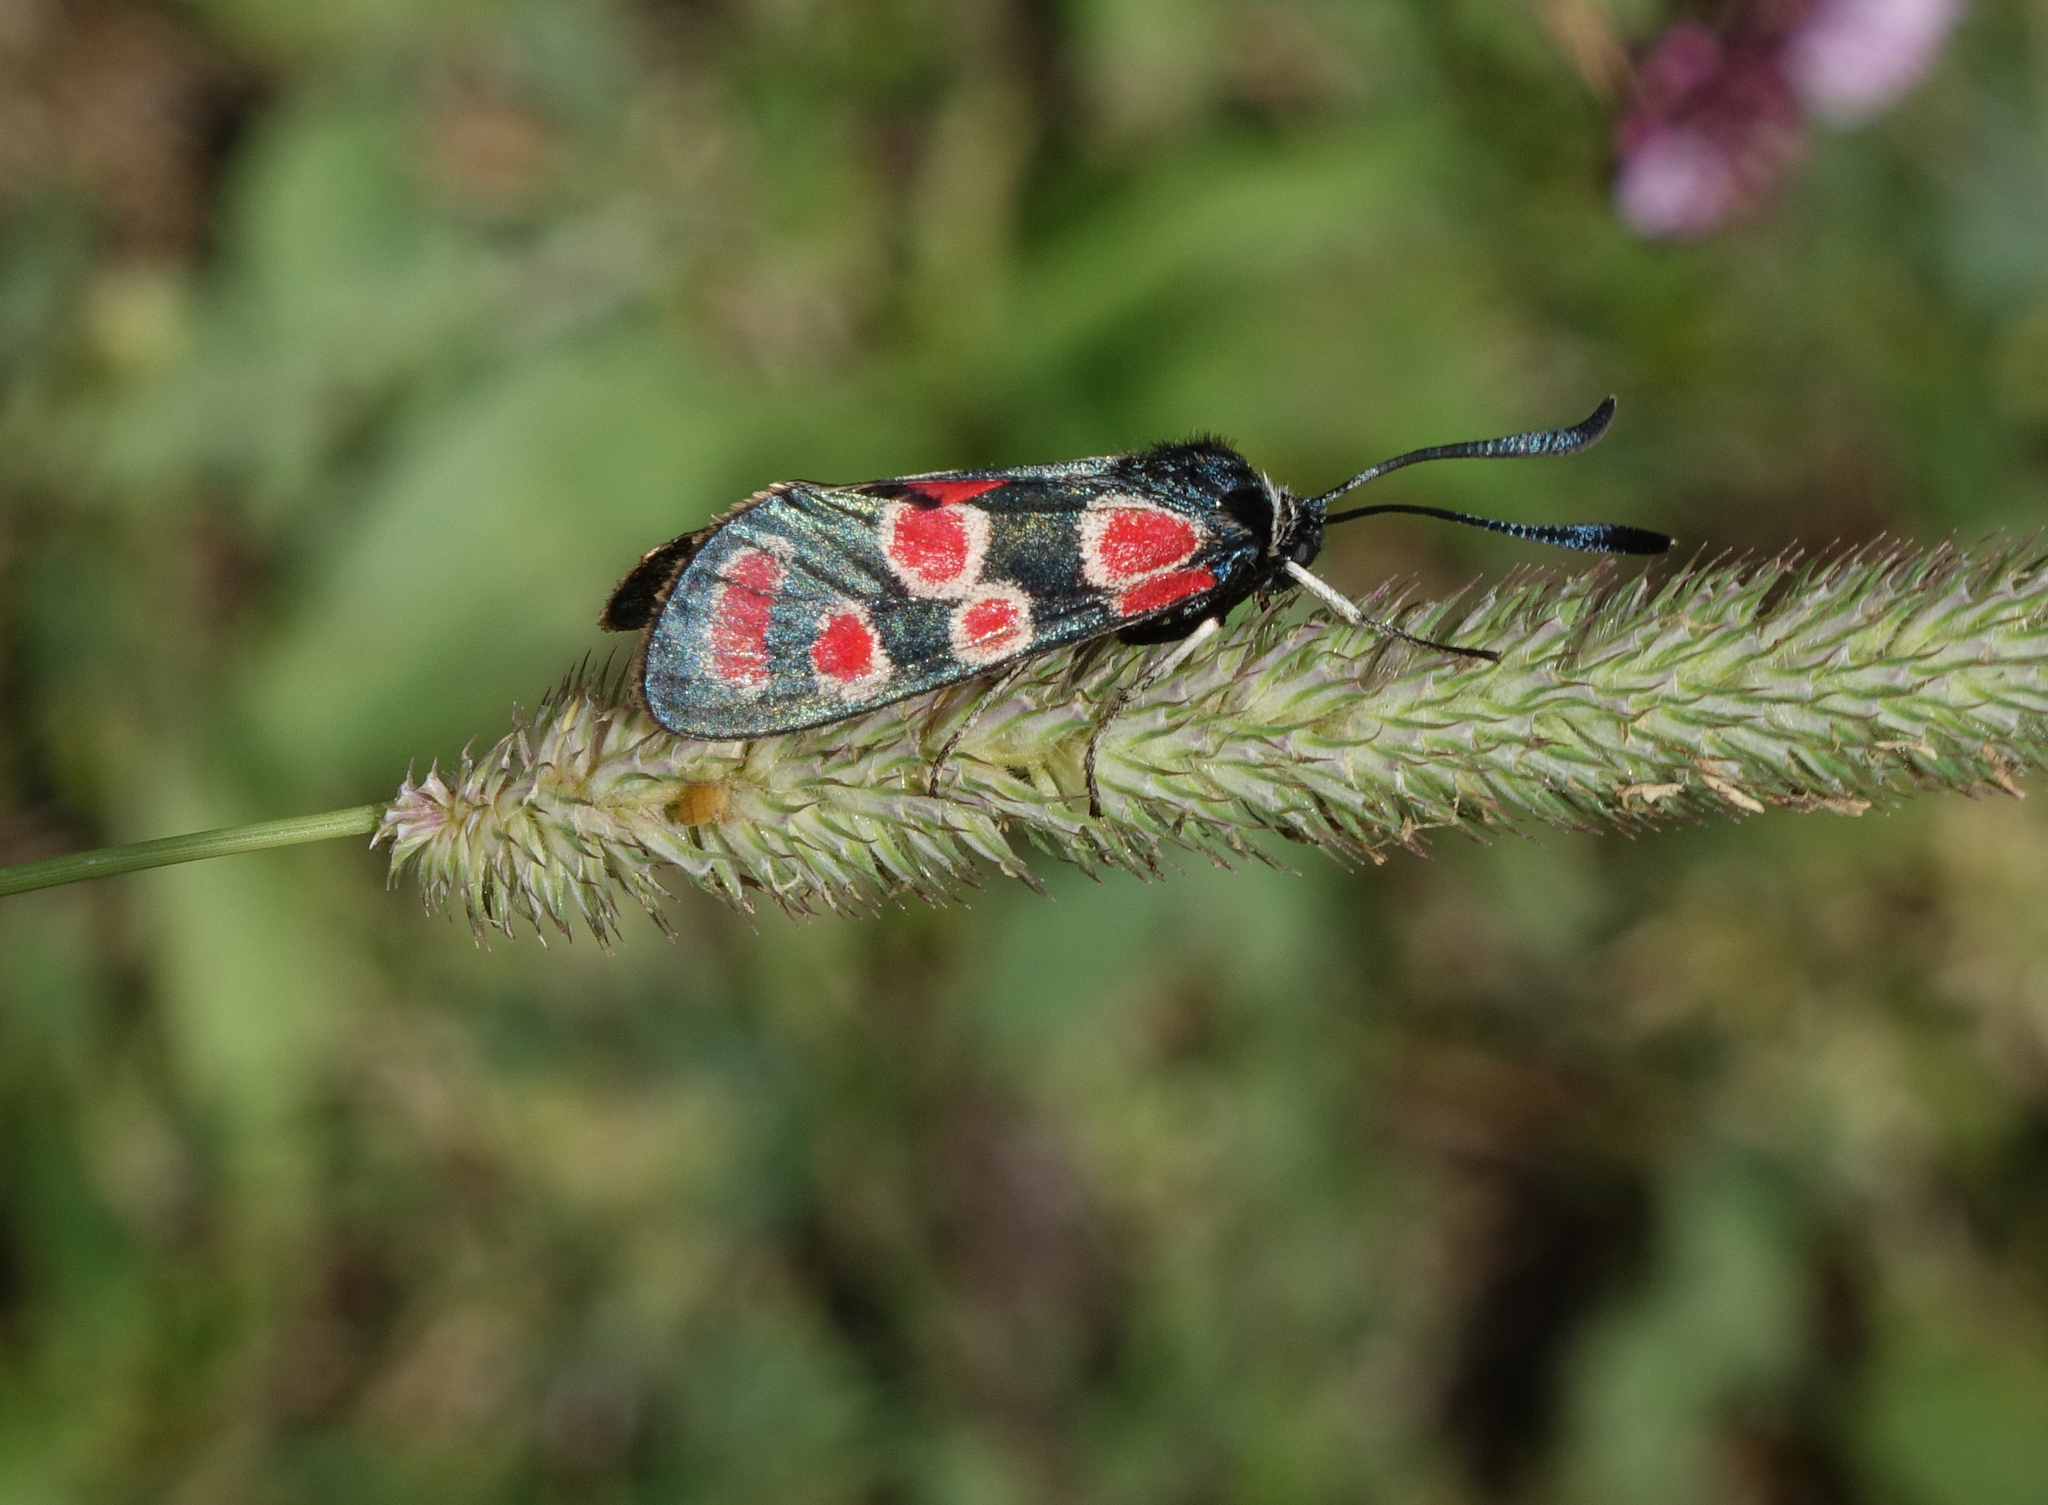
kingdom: Animalia
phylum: Arthropoda
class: Insecta
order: Lepidoptera
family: Zygaenidae
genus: Zygaena
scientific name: Zygaena carniolica
